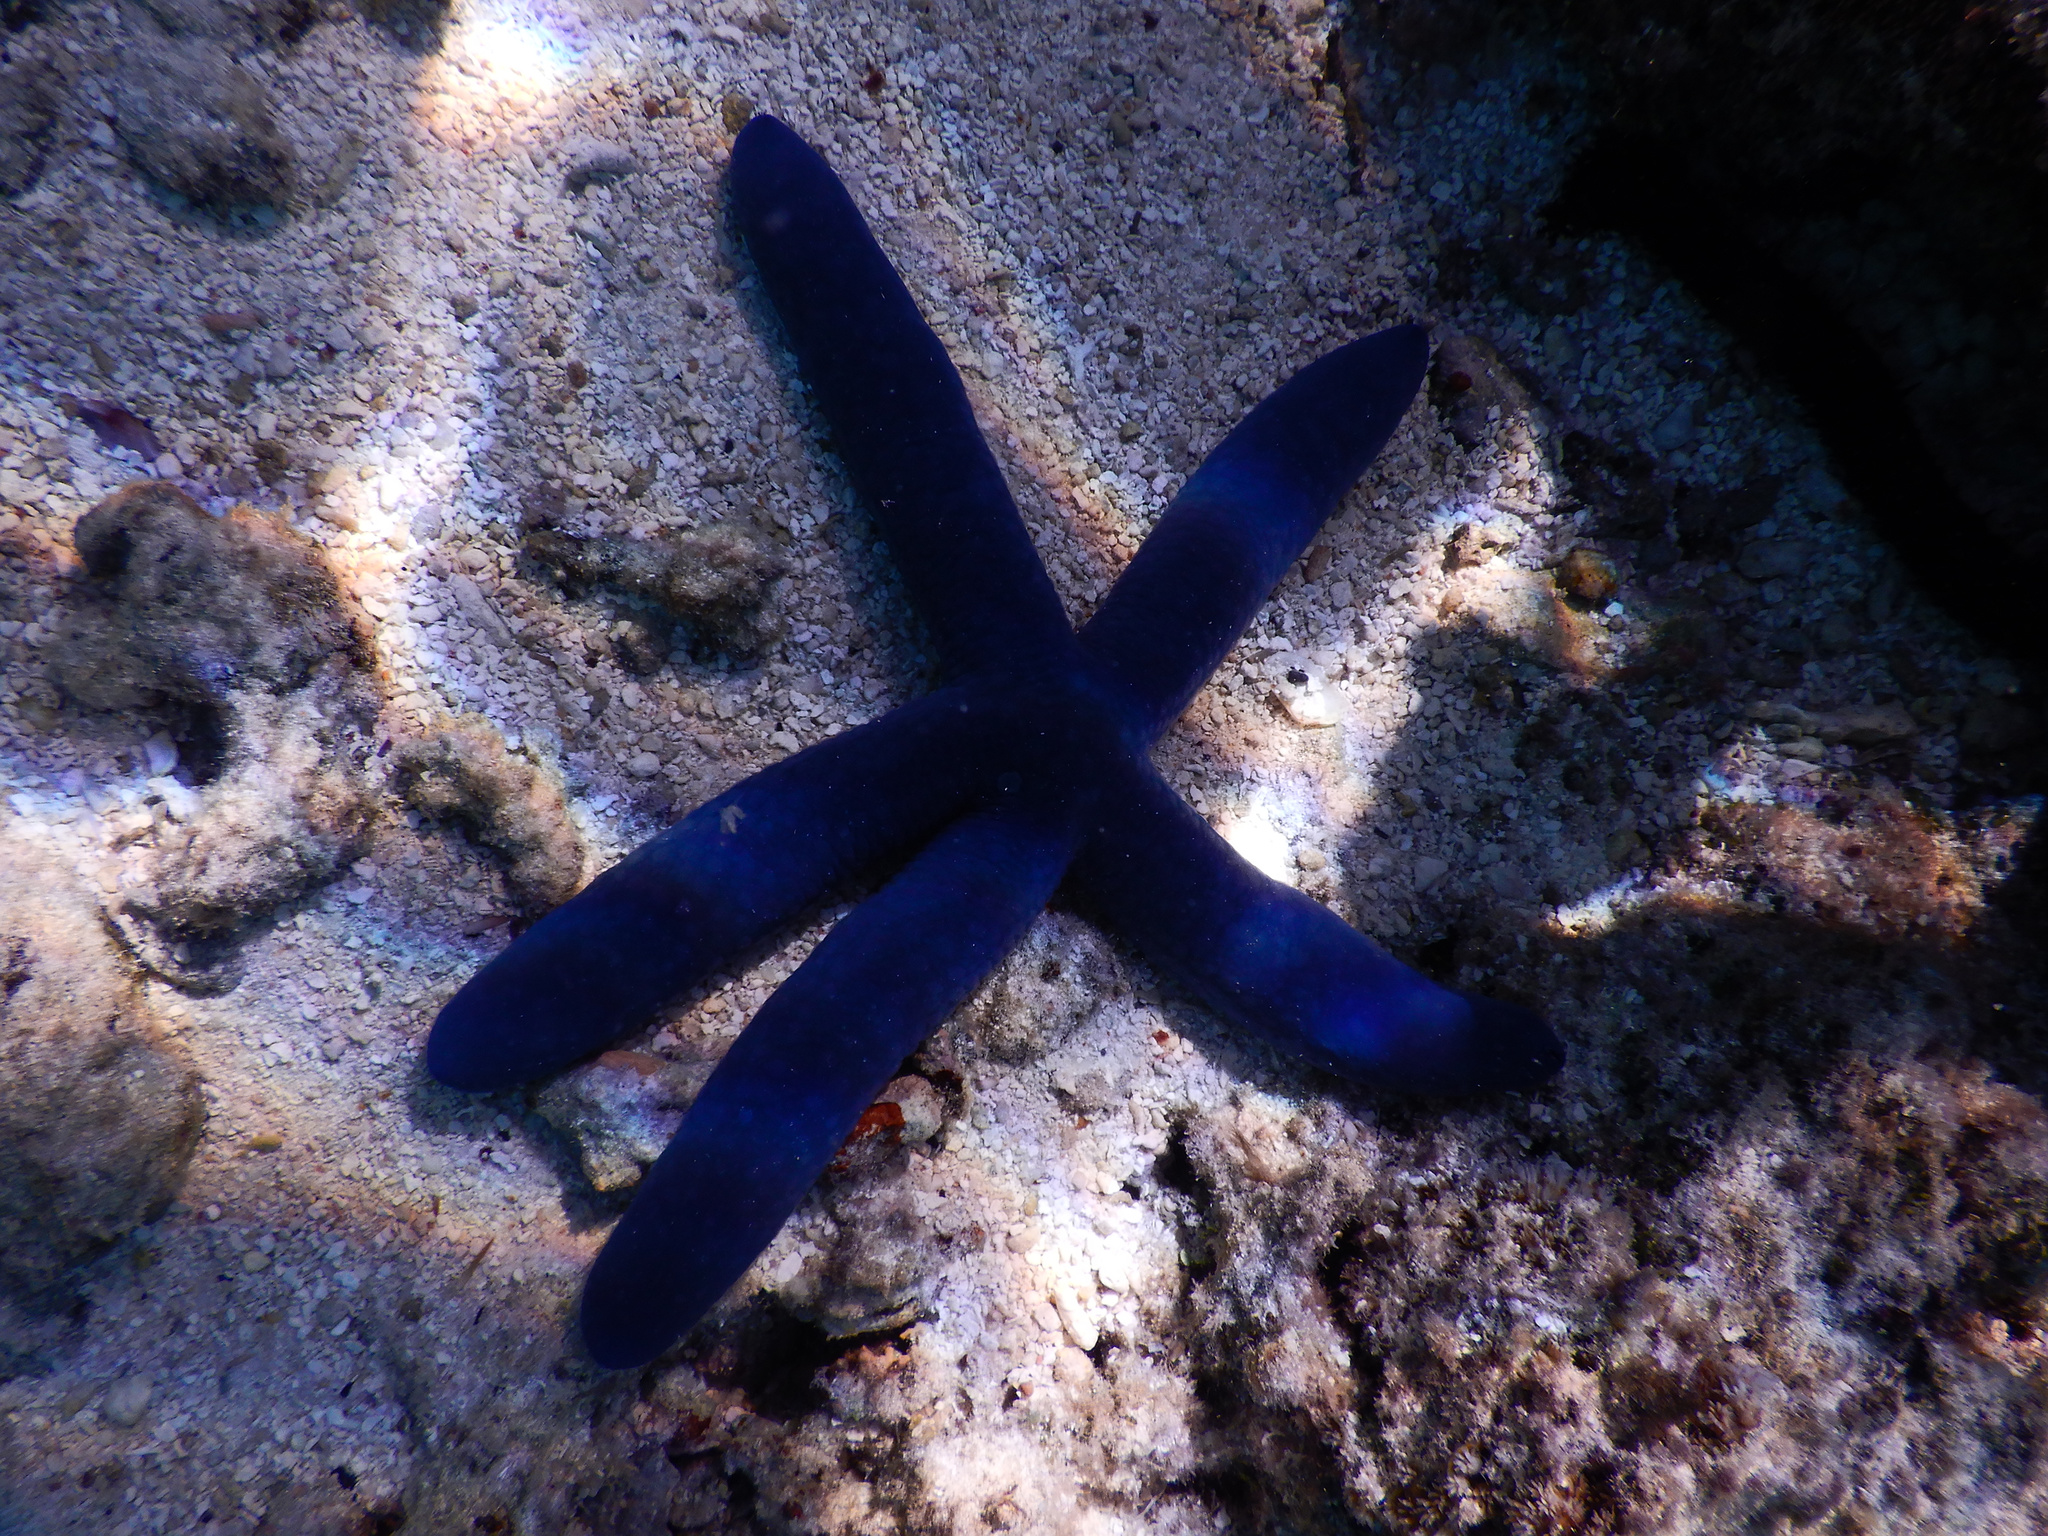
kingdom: Animalia
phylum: Echinodermata
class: Asteroidea
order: Valvatida
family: Ophidiasteridae
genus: Linckia
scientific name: Linckia laevigata
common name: Azure sea star
